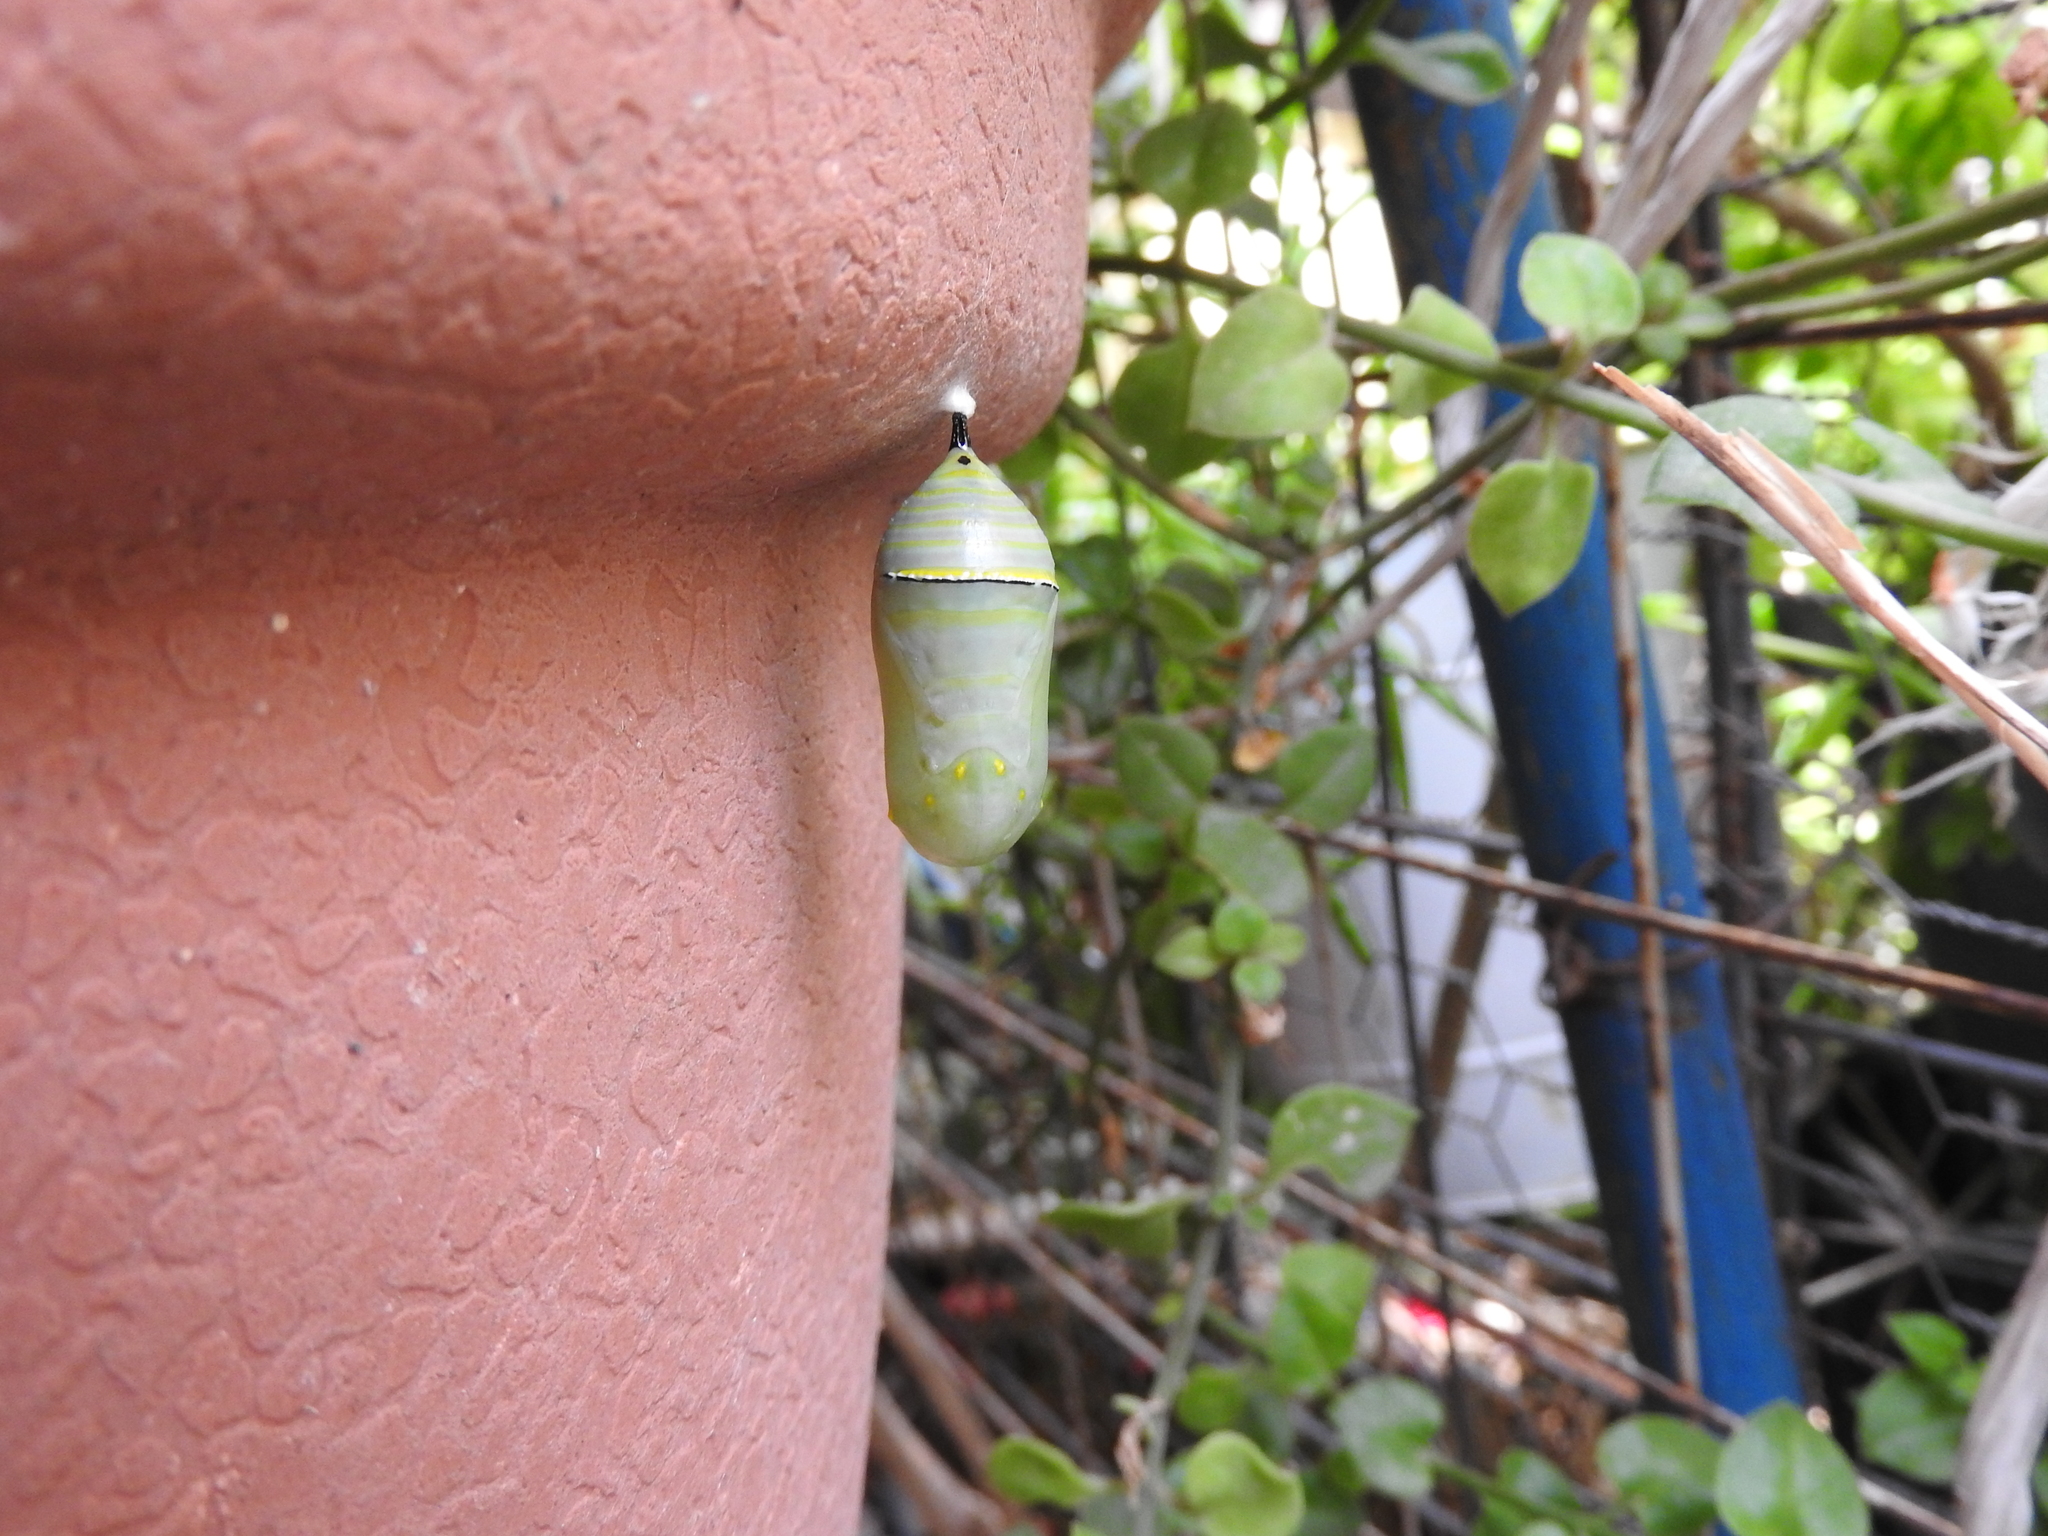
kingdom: Animalia
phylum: Arthropoda
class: Insecta
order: Lepidoptera
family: Nymphalidae
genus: Danaus
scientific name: Danaus plexippus
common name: Monarch
